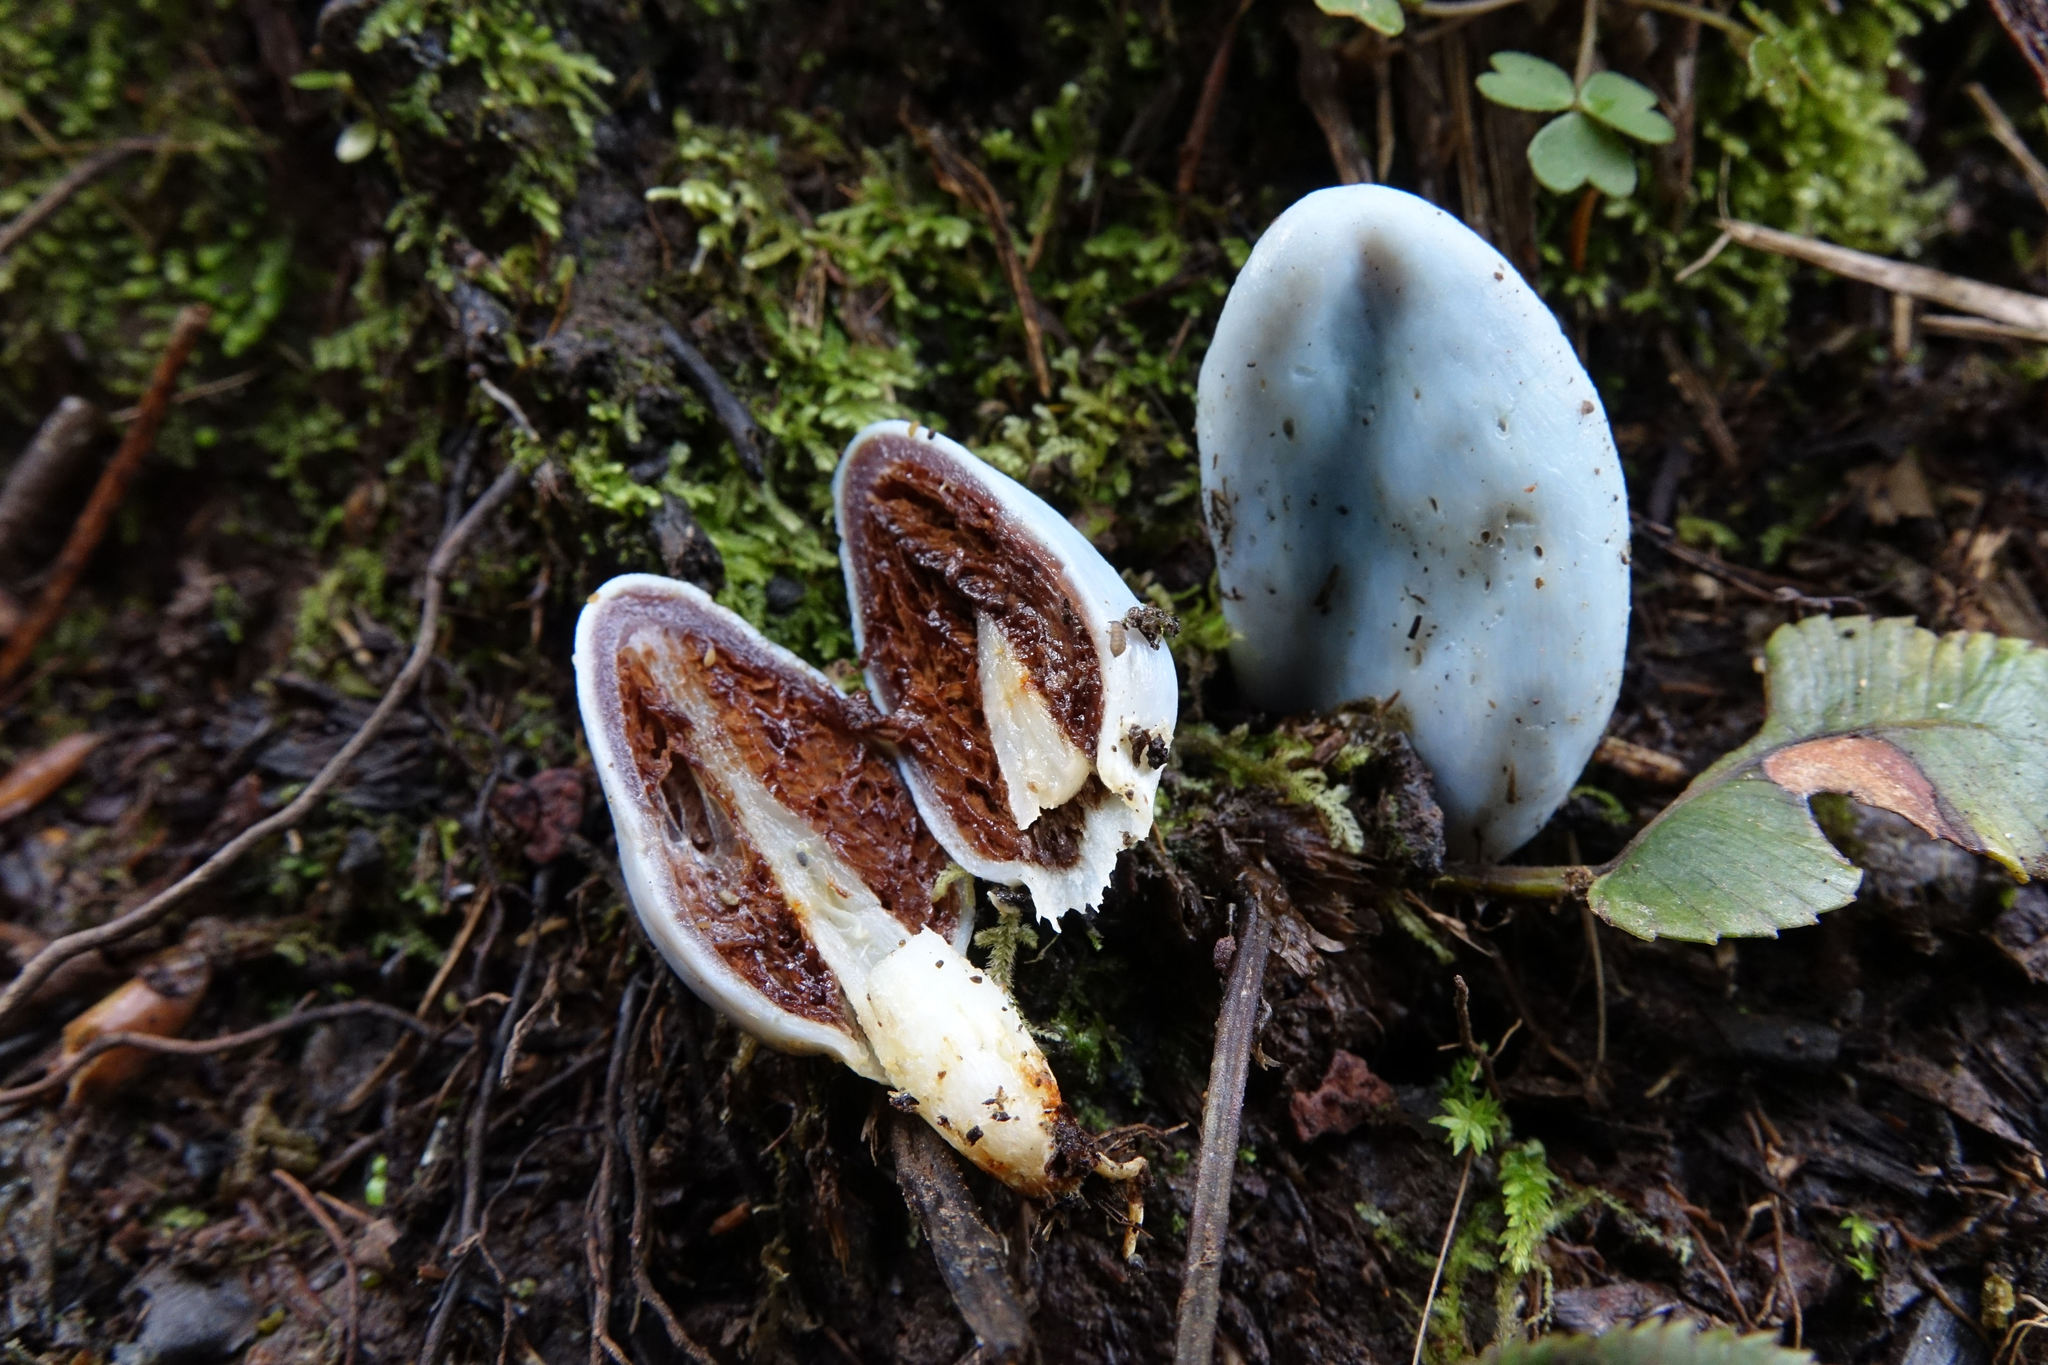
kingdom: Fungi
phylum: Basidiomycota
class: Agaricomycetes
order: Agaricales
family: Agaricaceae
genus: Clavogaster
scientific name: Clavogaster virescens
